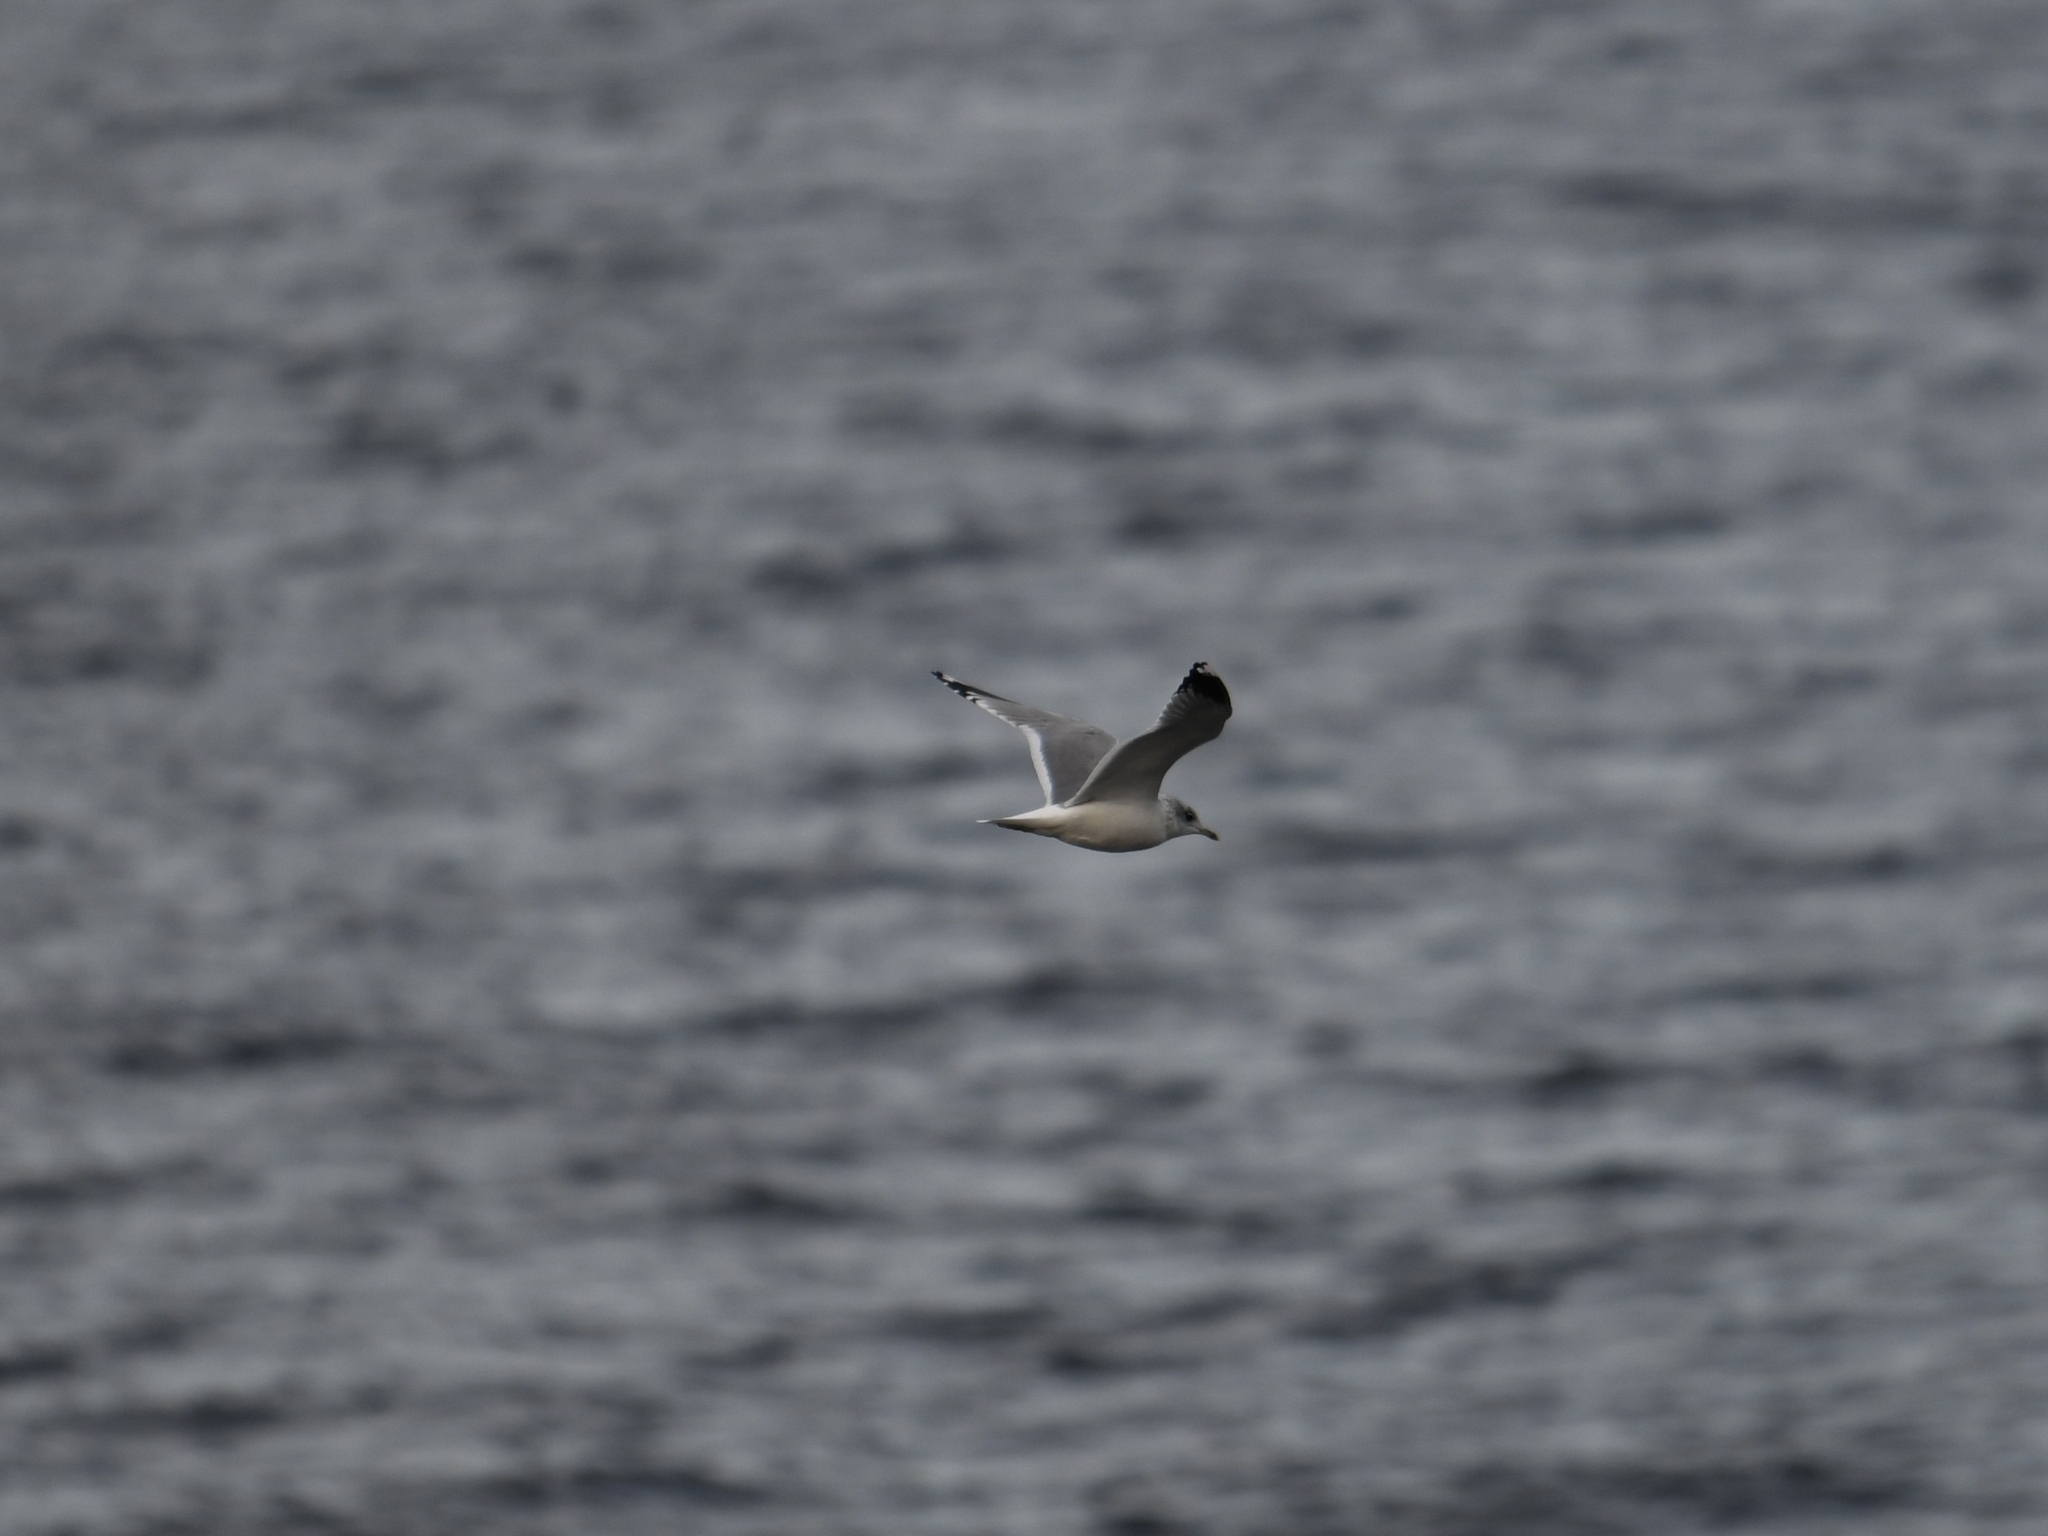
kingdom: Animalia
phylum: Chordata
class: Aves
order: Charadriiformes
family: Laridae
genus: Larus
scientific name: Larus argentatus
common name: Herring gull
